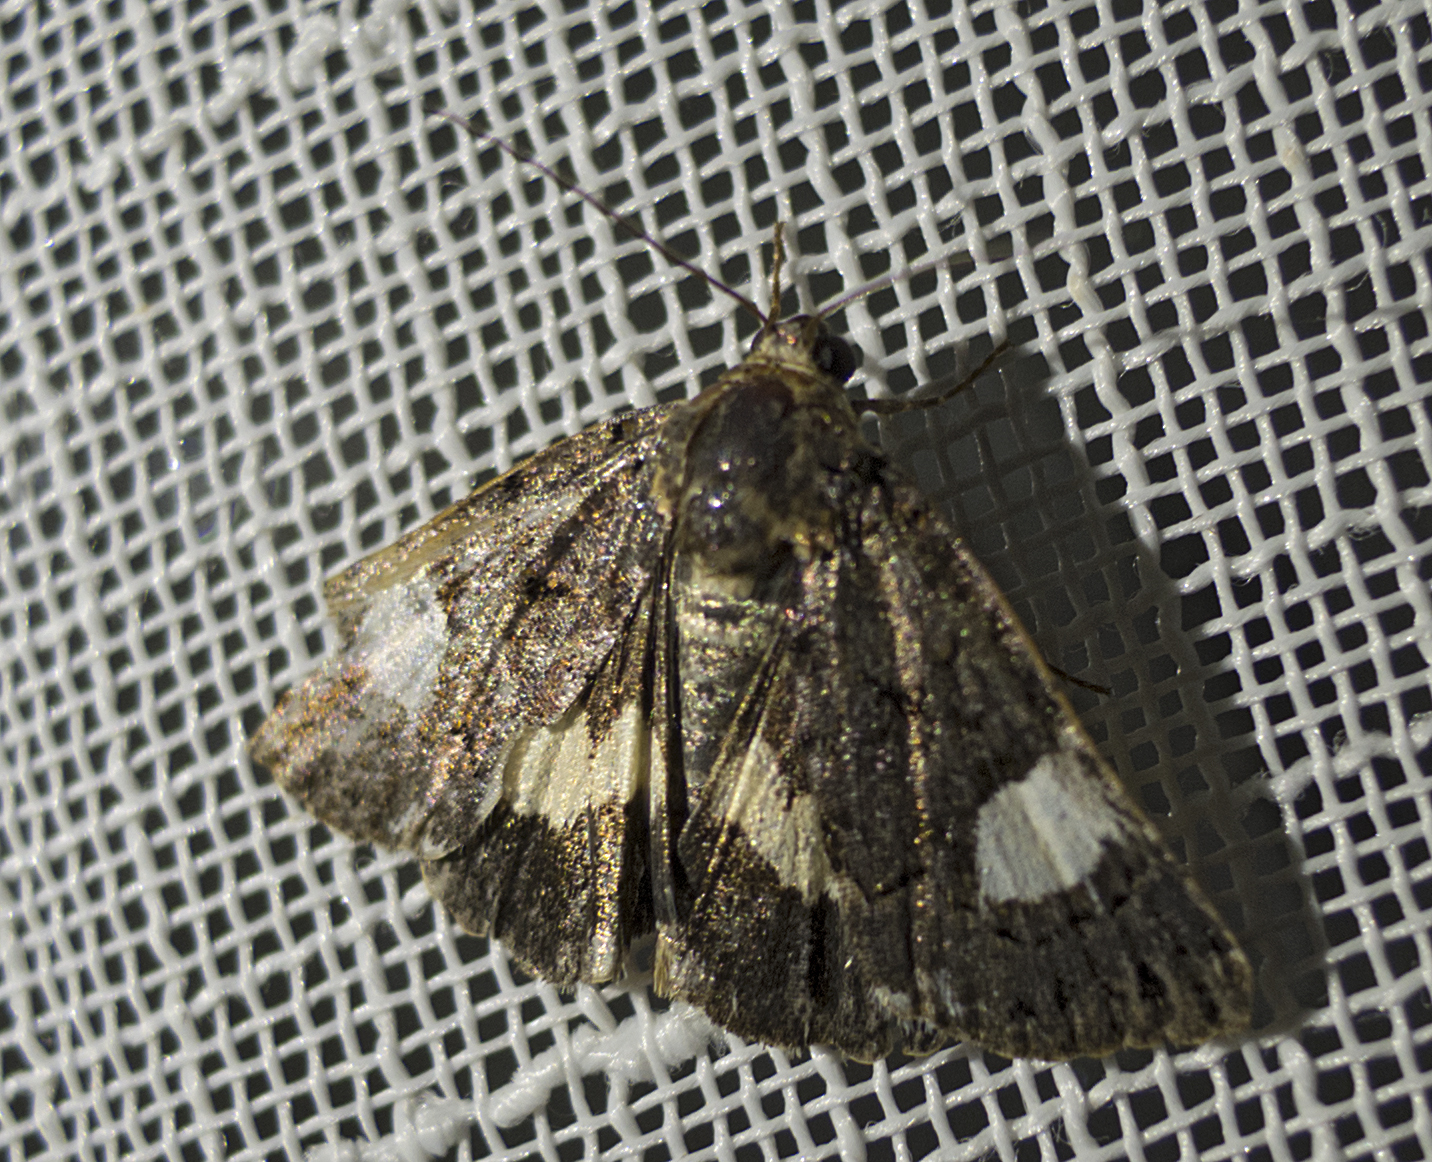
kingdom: Animalia
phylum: Arthropoda
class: Insecta
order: Lepidoptera
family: Erebidae
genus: Tyta
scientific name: Tyta luctuosa
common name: Four-spotted
